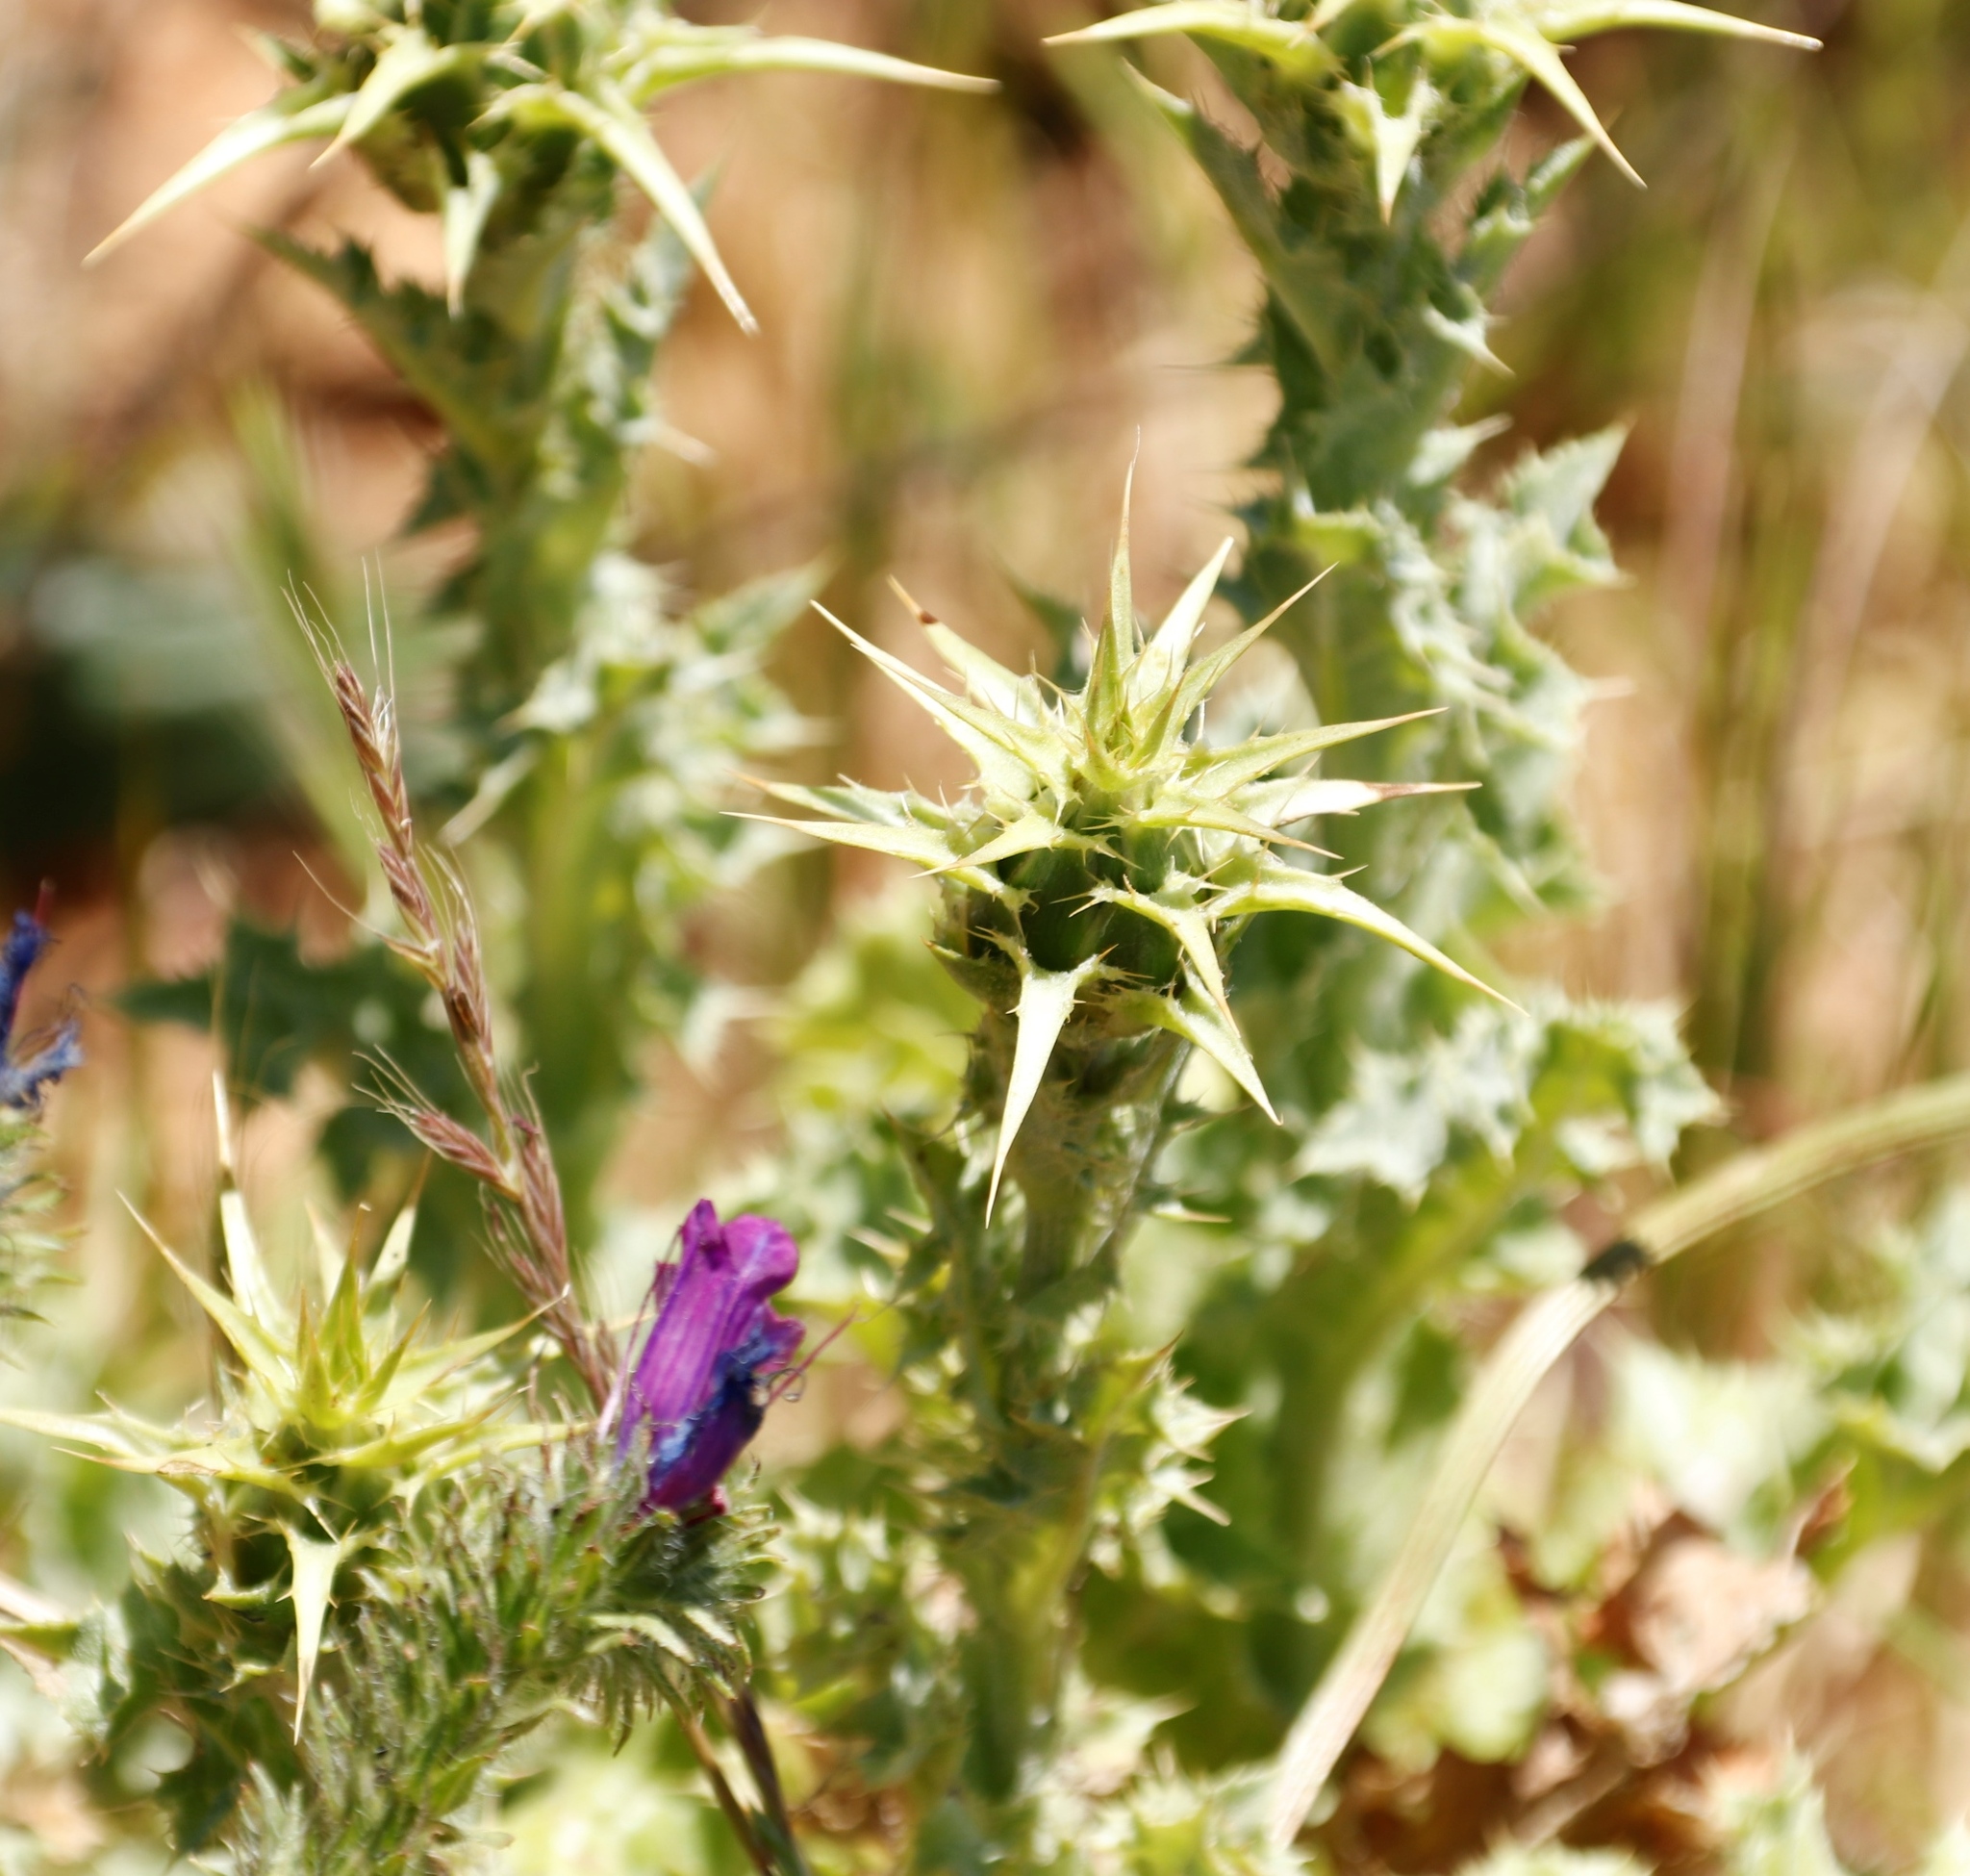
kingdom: Plantae
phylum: Tracheophyta
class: Magnoliopsida
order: Asterales
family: Asteraceae
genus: Silybum
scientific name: Silybum marianum
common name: Milk thistle
